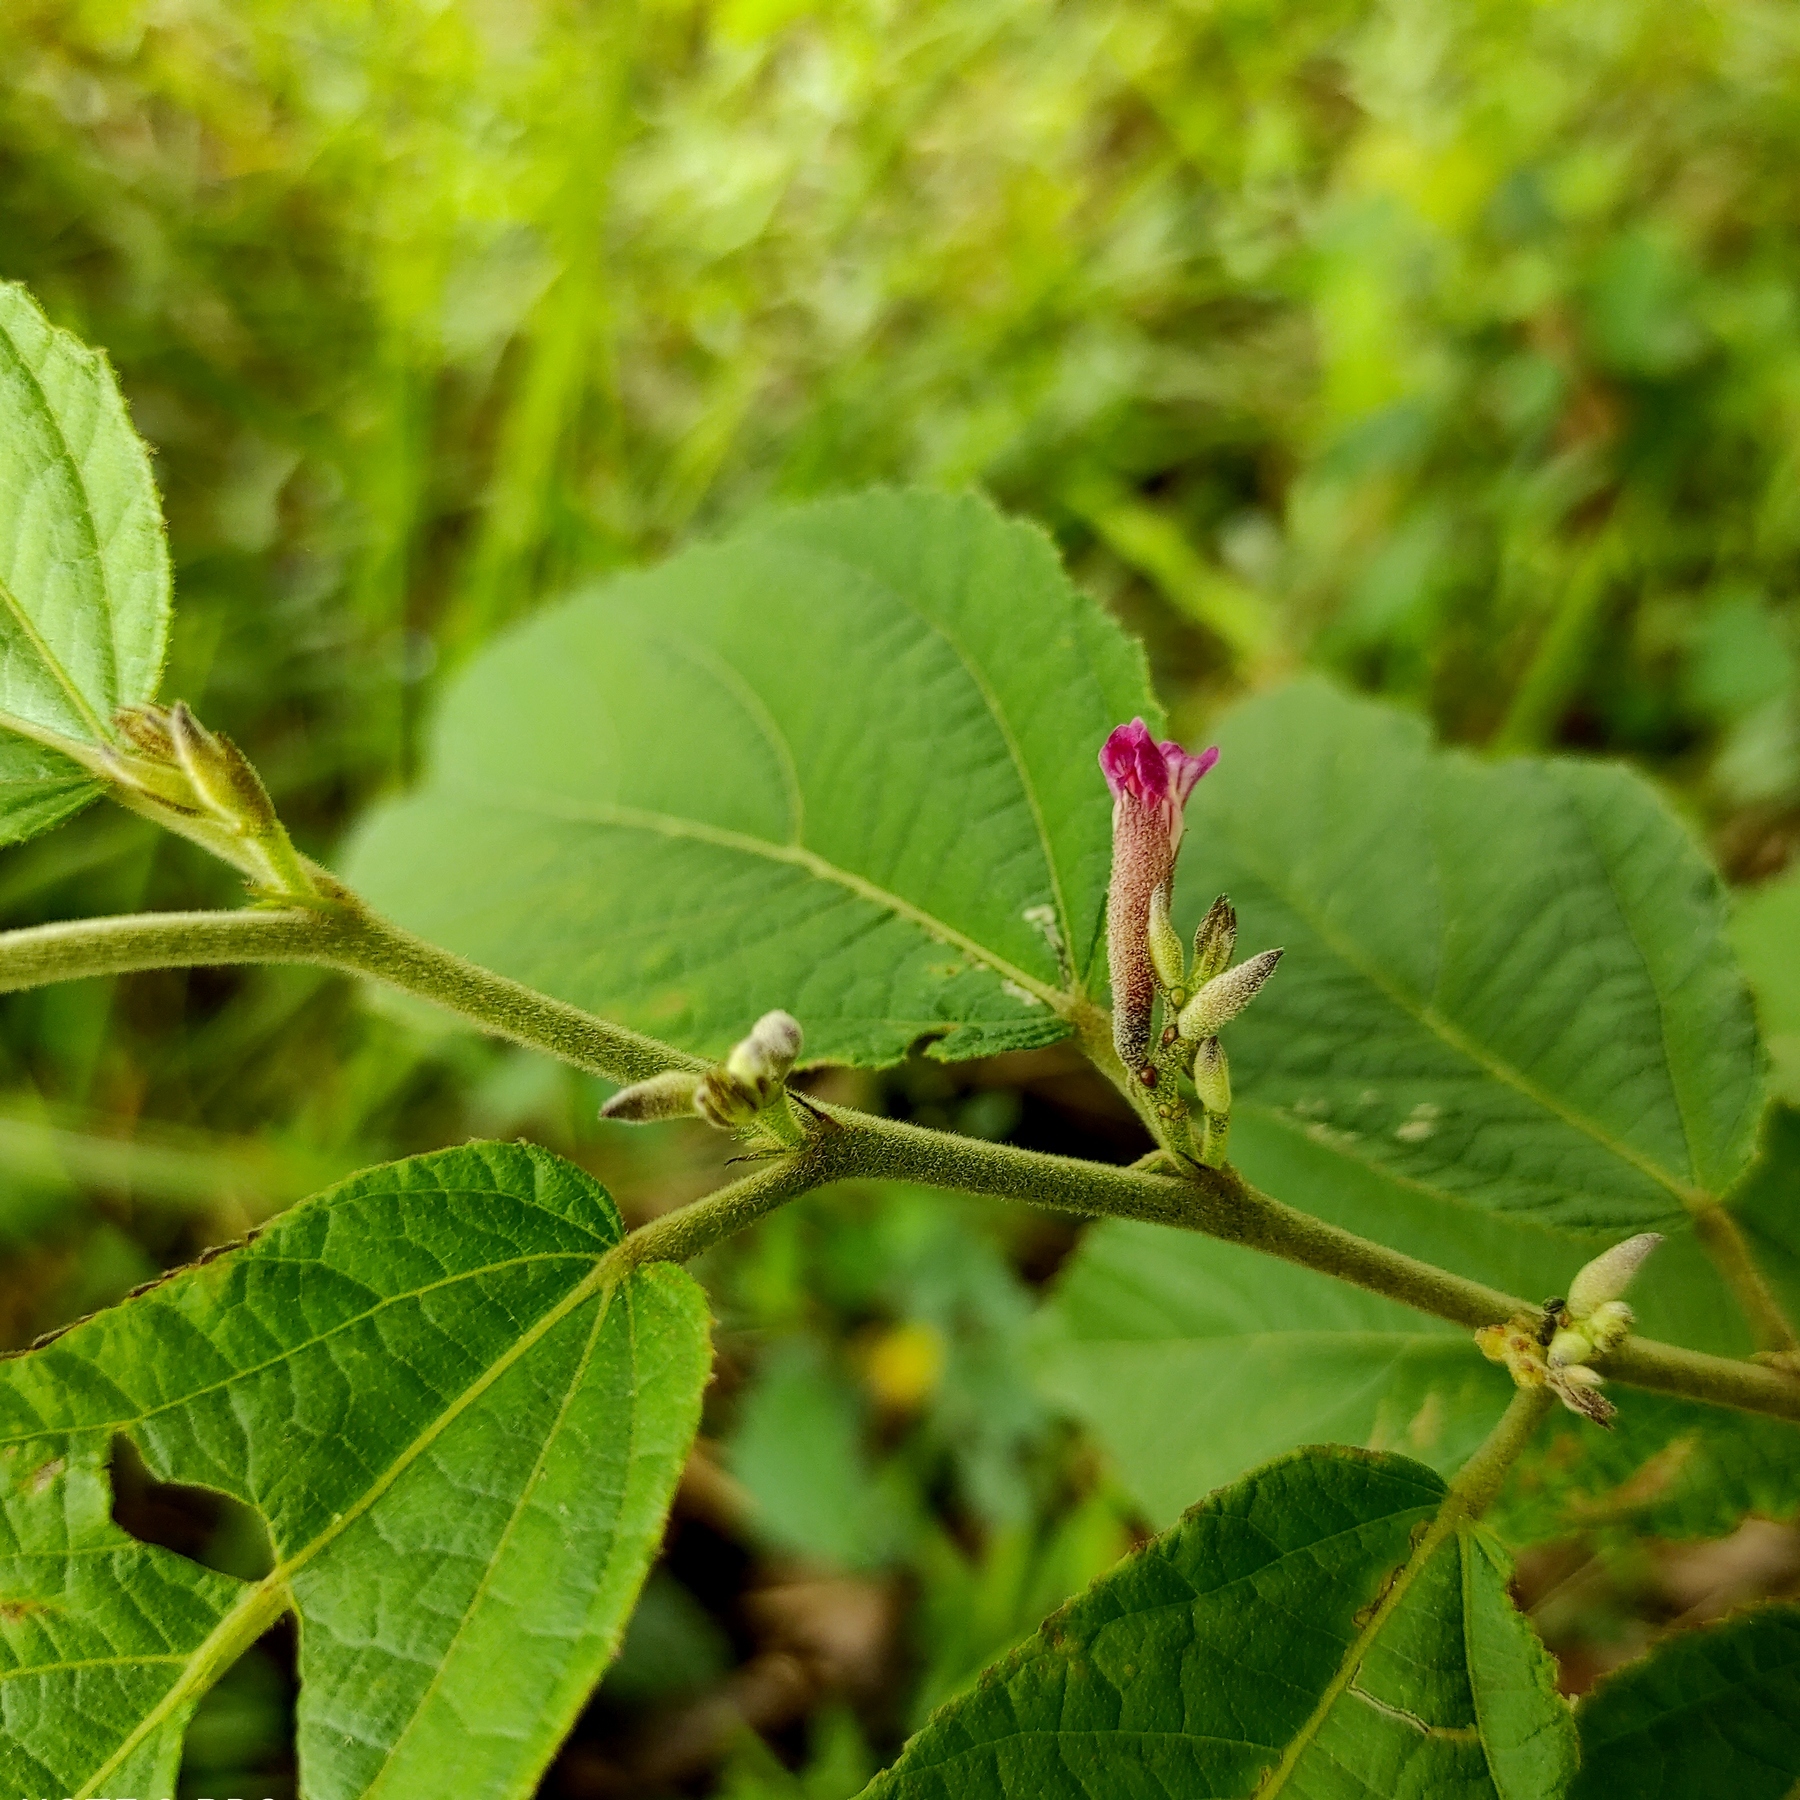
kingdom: Plantae
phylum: Tracheophyta
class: Magnoliopsida
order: Malvales
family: Malvaceae
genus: Helicteres
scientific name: Helicteres hirsuta
